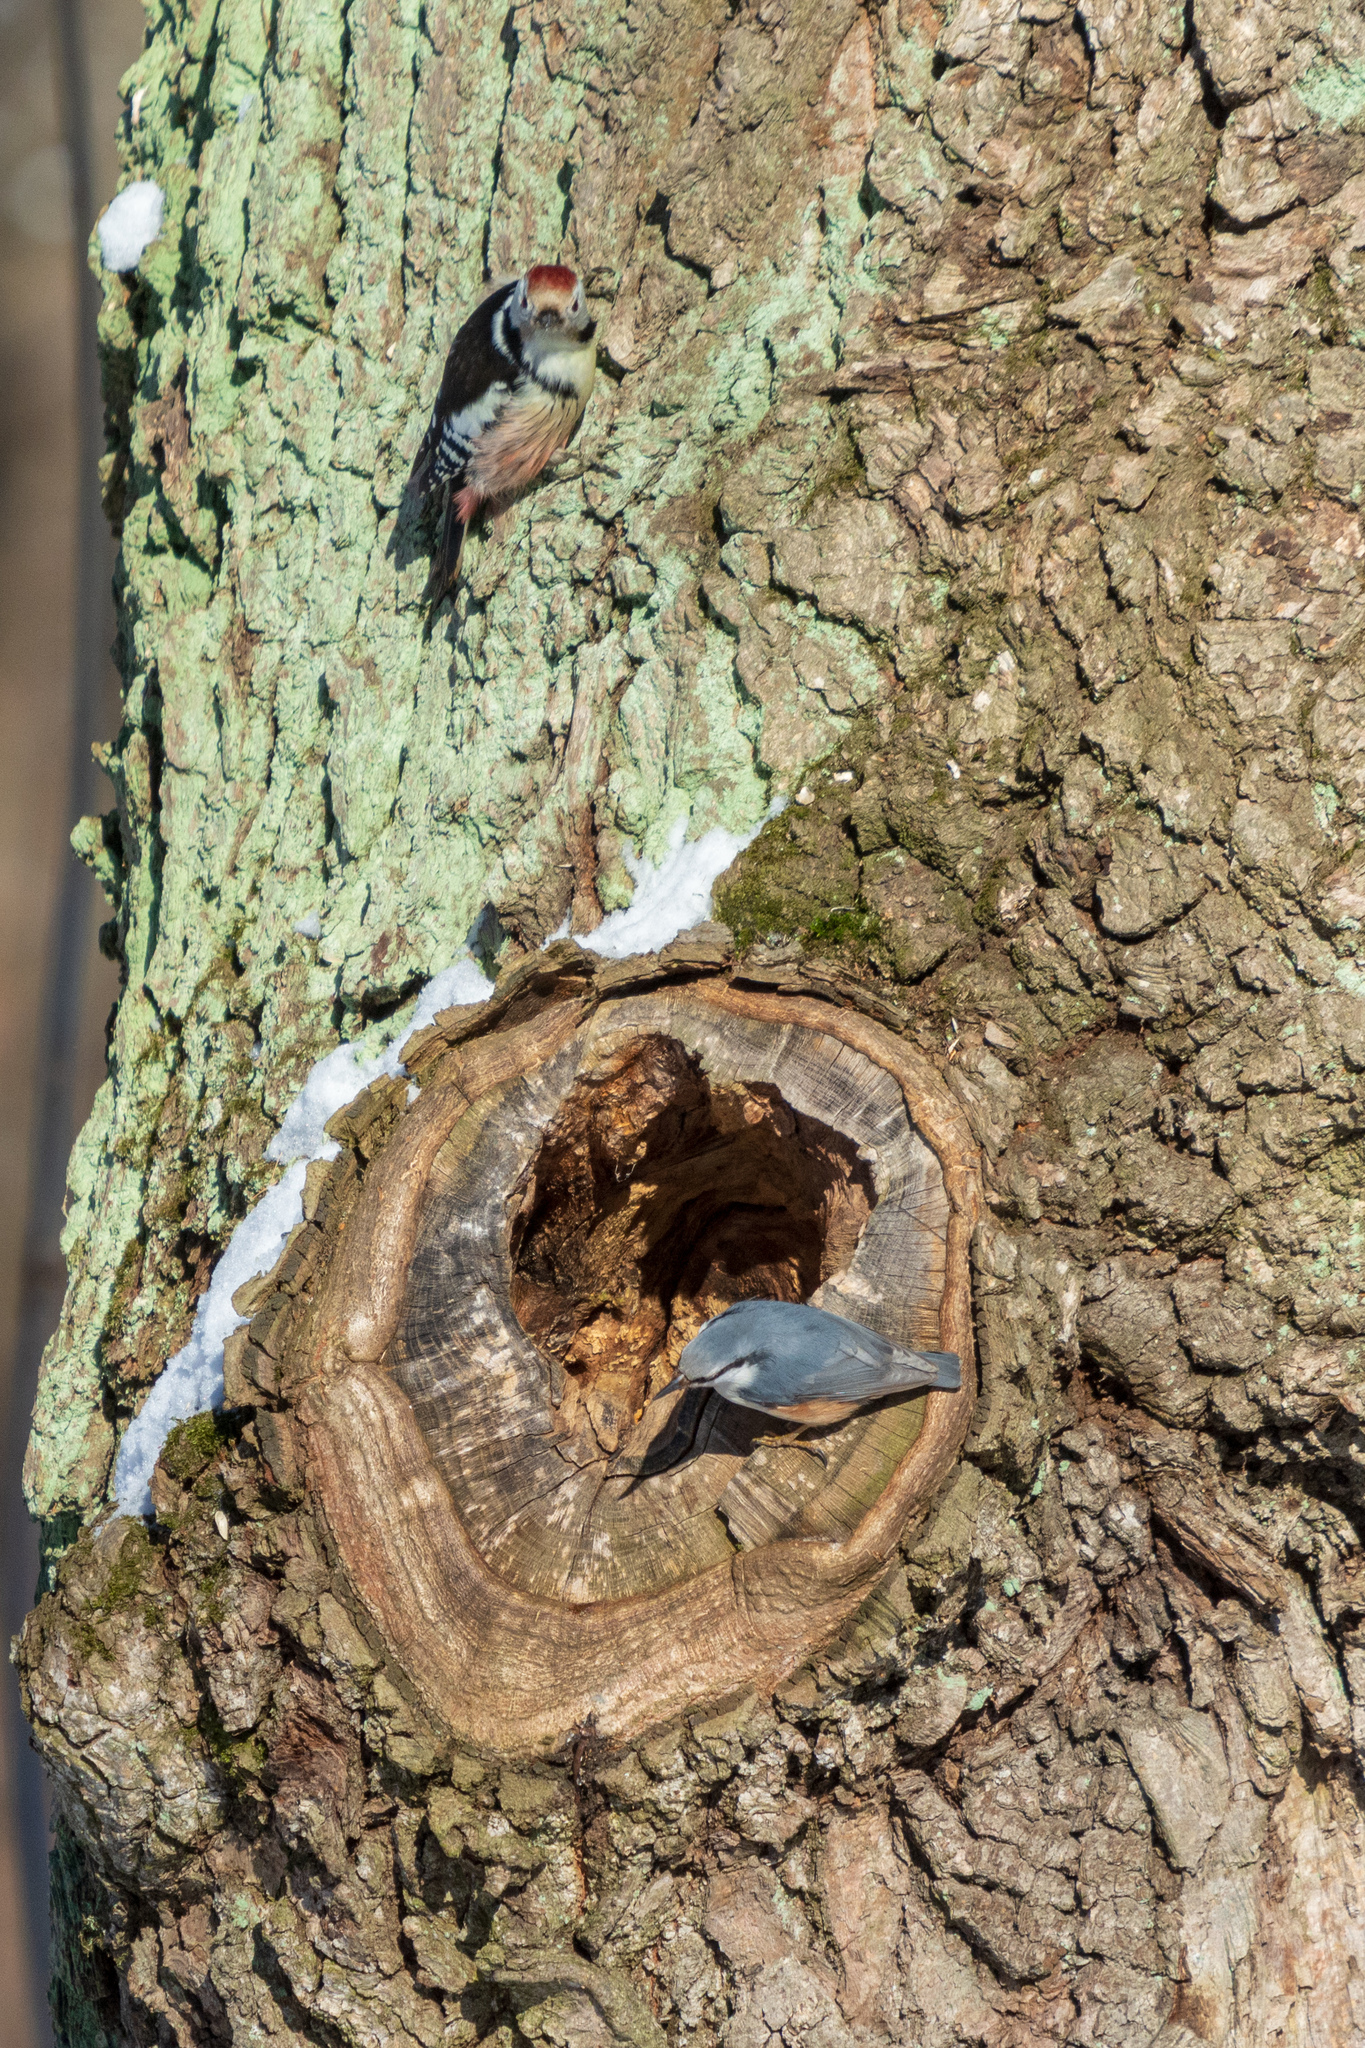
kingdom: Animalia
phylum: Chordata
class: Aves
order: Piciformes
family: Picidae
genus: Dendrocoptes
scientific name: Dendrocoptes medius
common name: Middle spotted woodpecker
